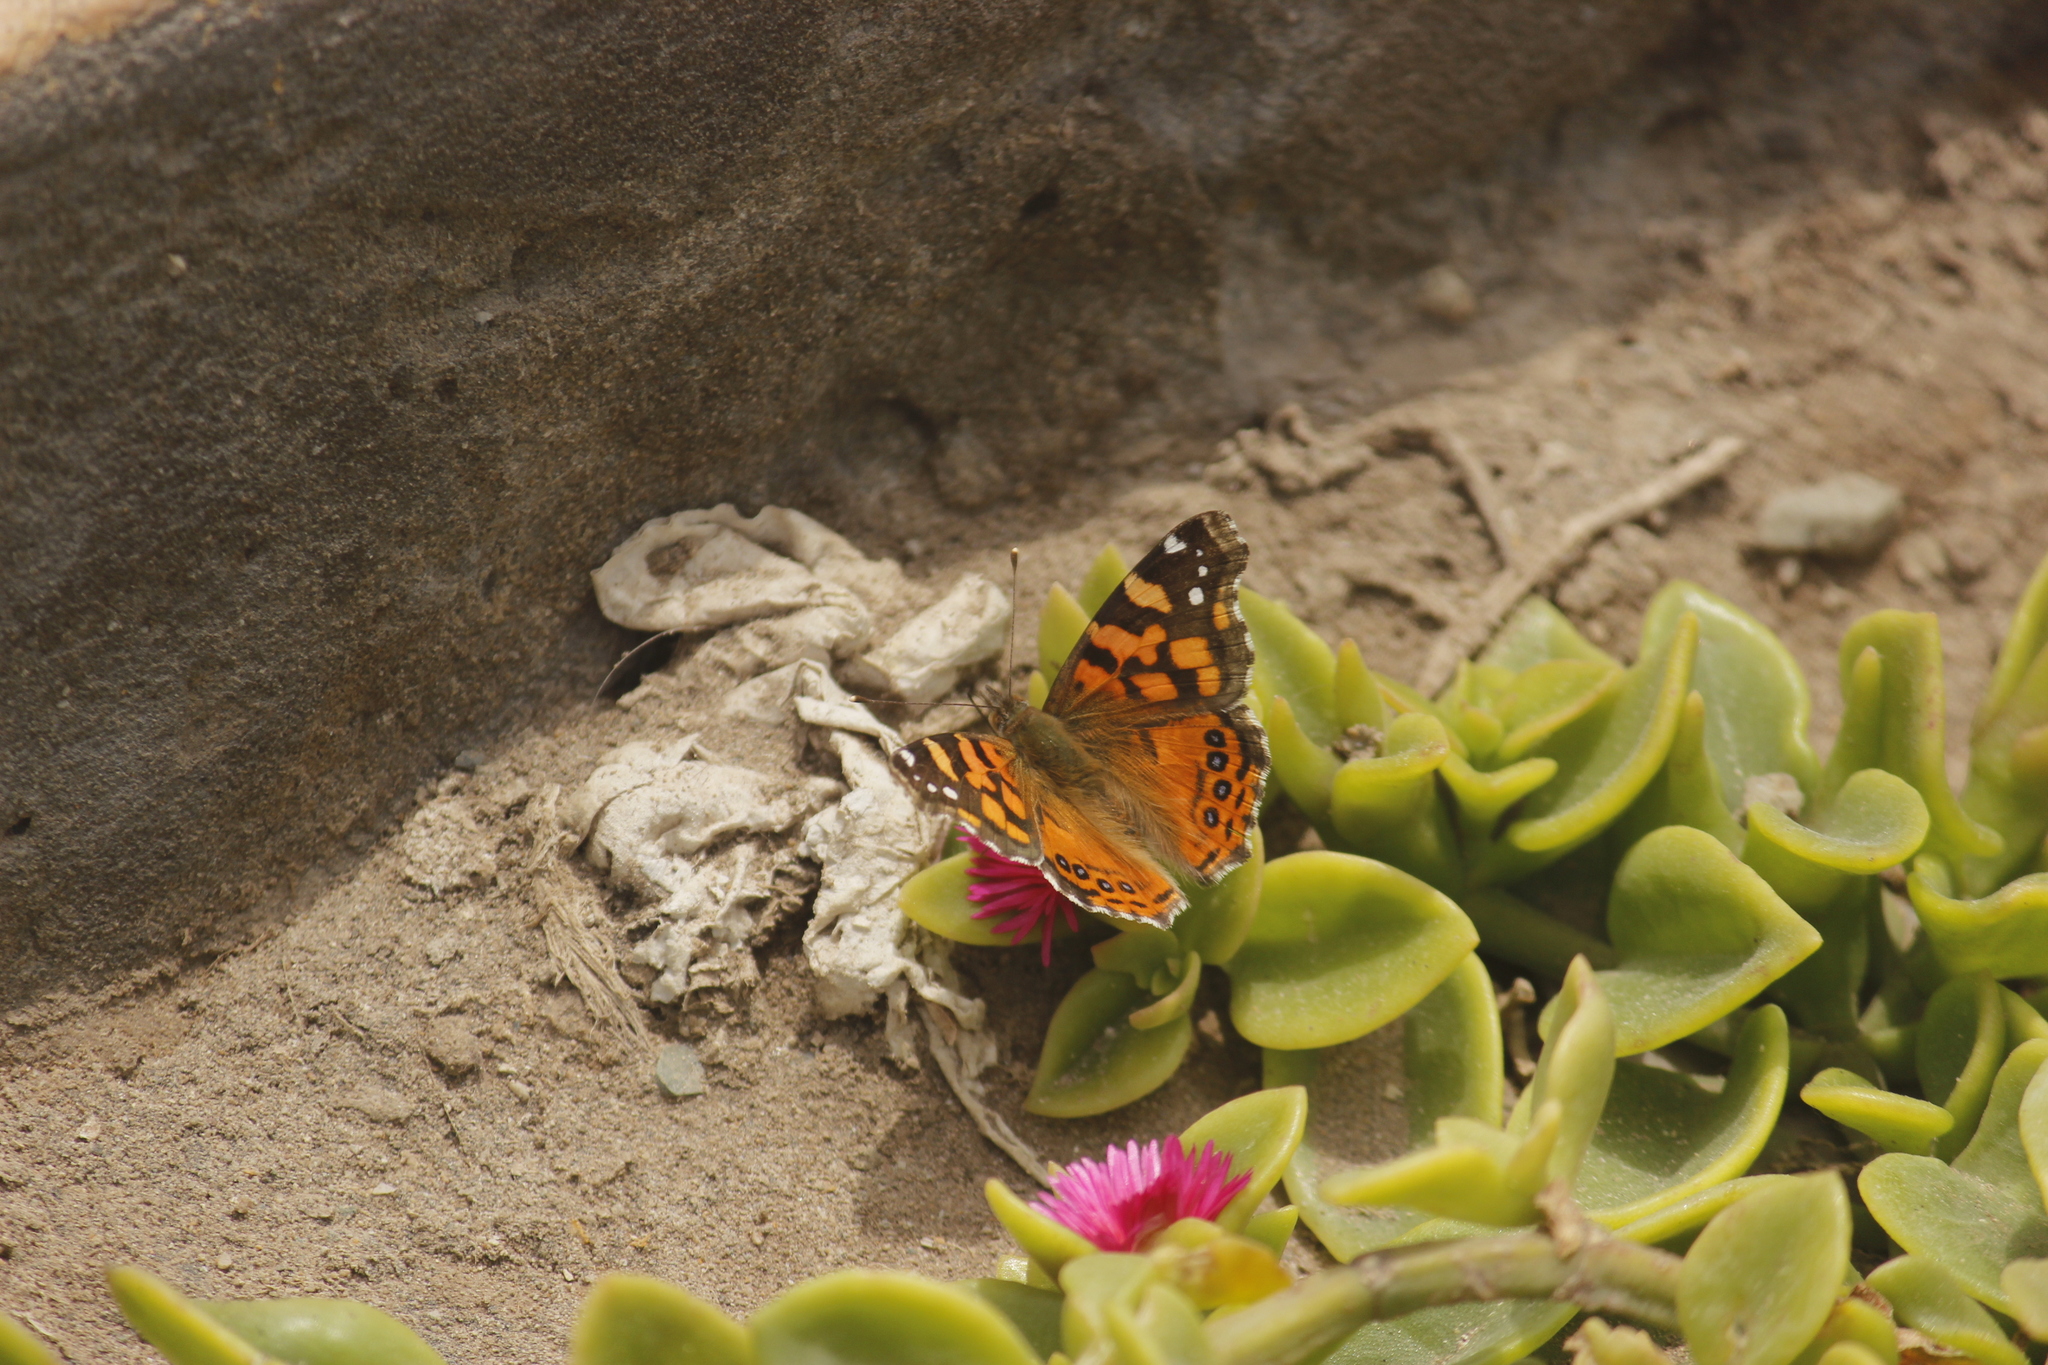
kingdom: Animalia
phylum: Arthropoda
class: Insecta
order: Lepidoptera
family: Nymphalidae
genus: Vanessa
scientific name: Vanessa carye
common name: Subtropical lady
